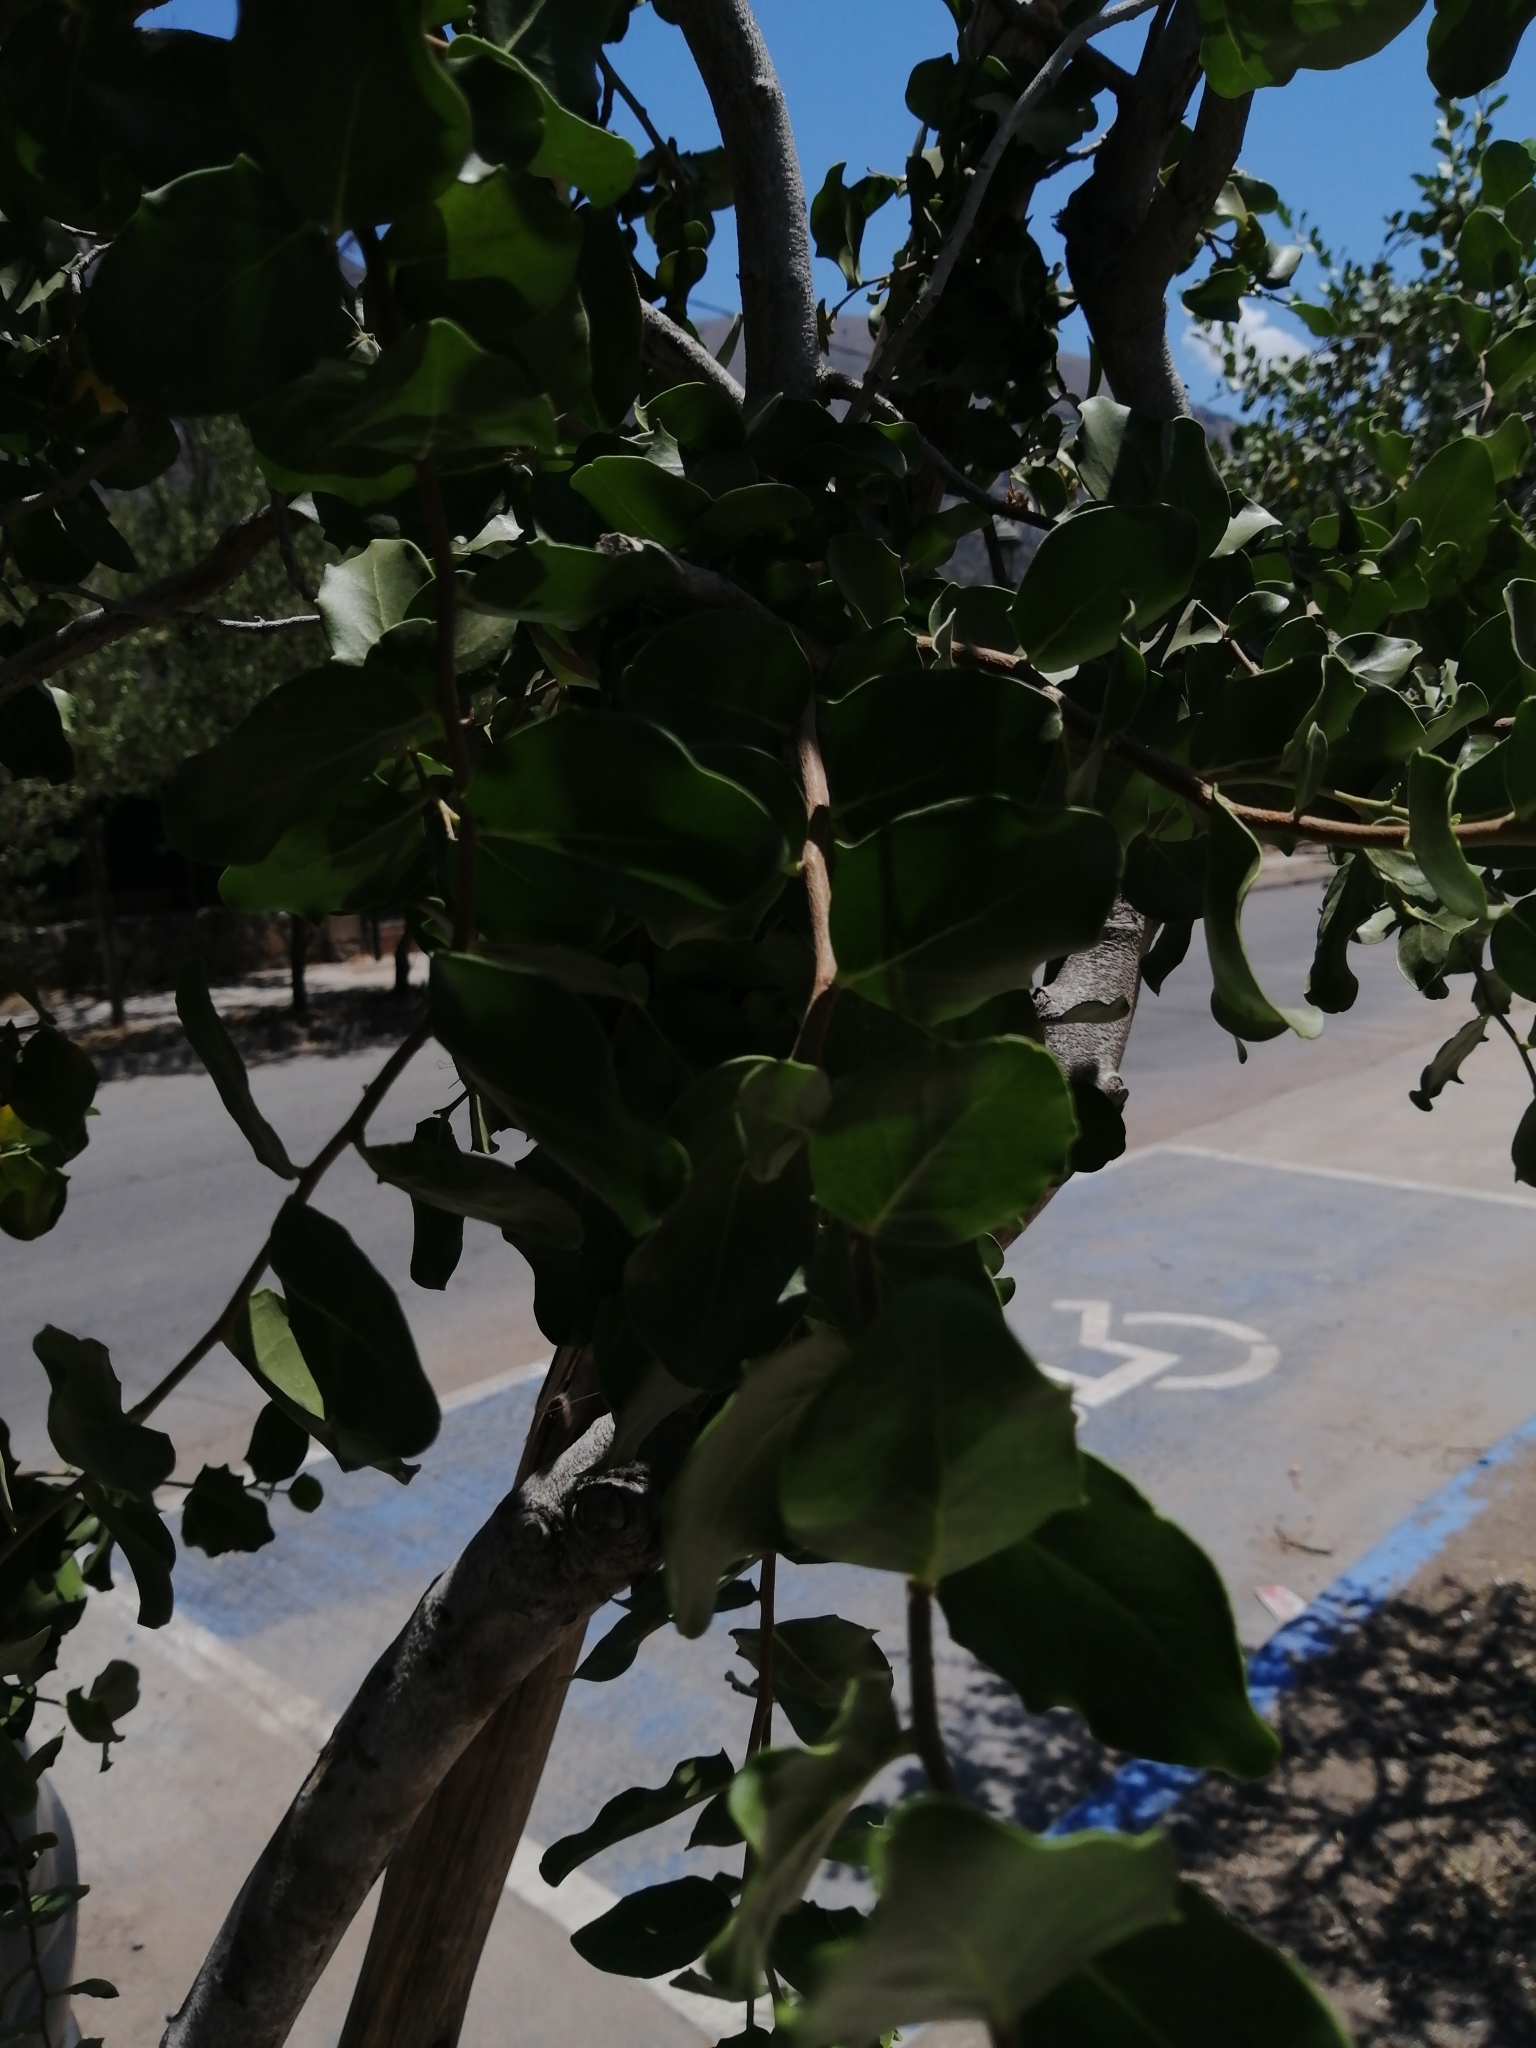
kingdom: Plantae
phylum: Tracheophyta
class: Magnoliopsida
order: Fabales
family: Quillajaceae
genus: Quillaja
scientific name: Quillaja saponaria
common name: Murillo's-bark
